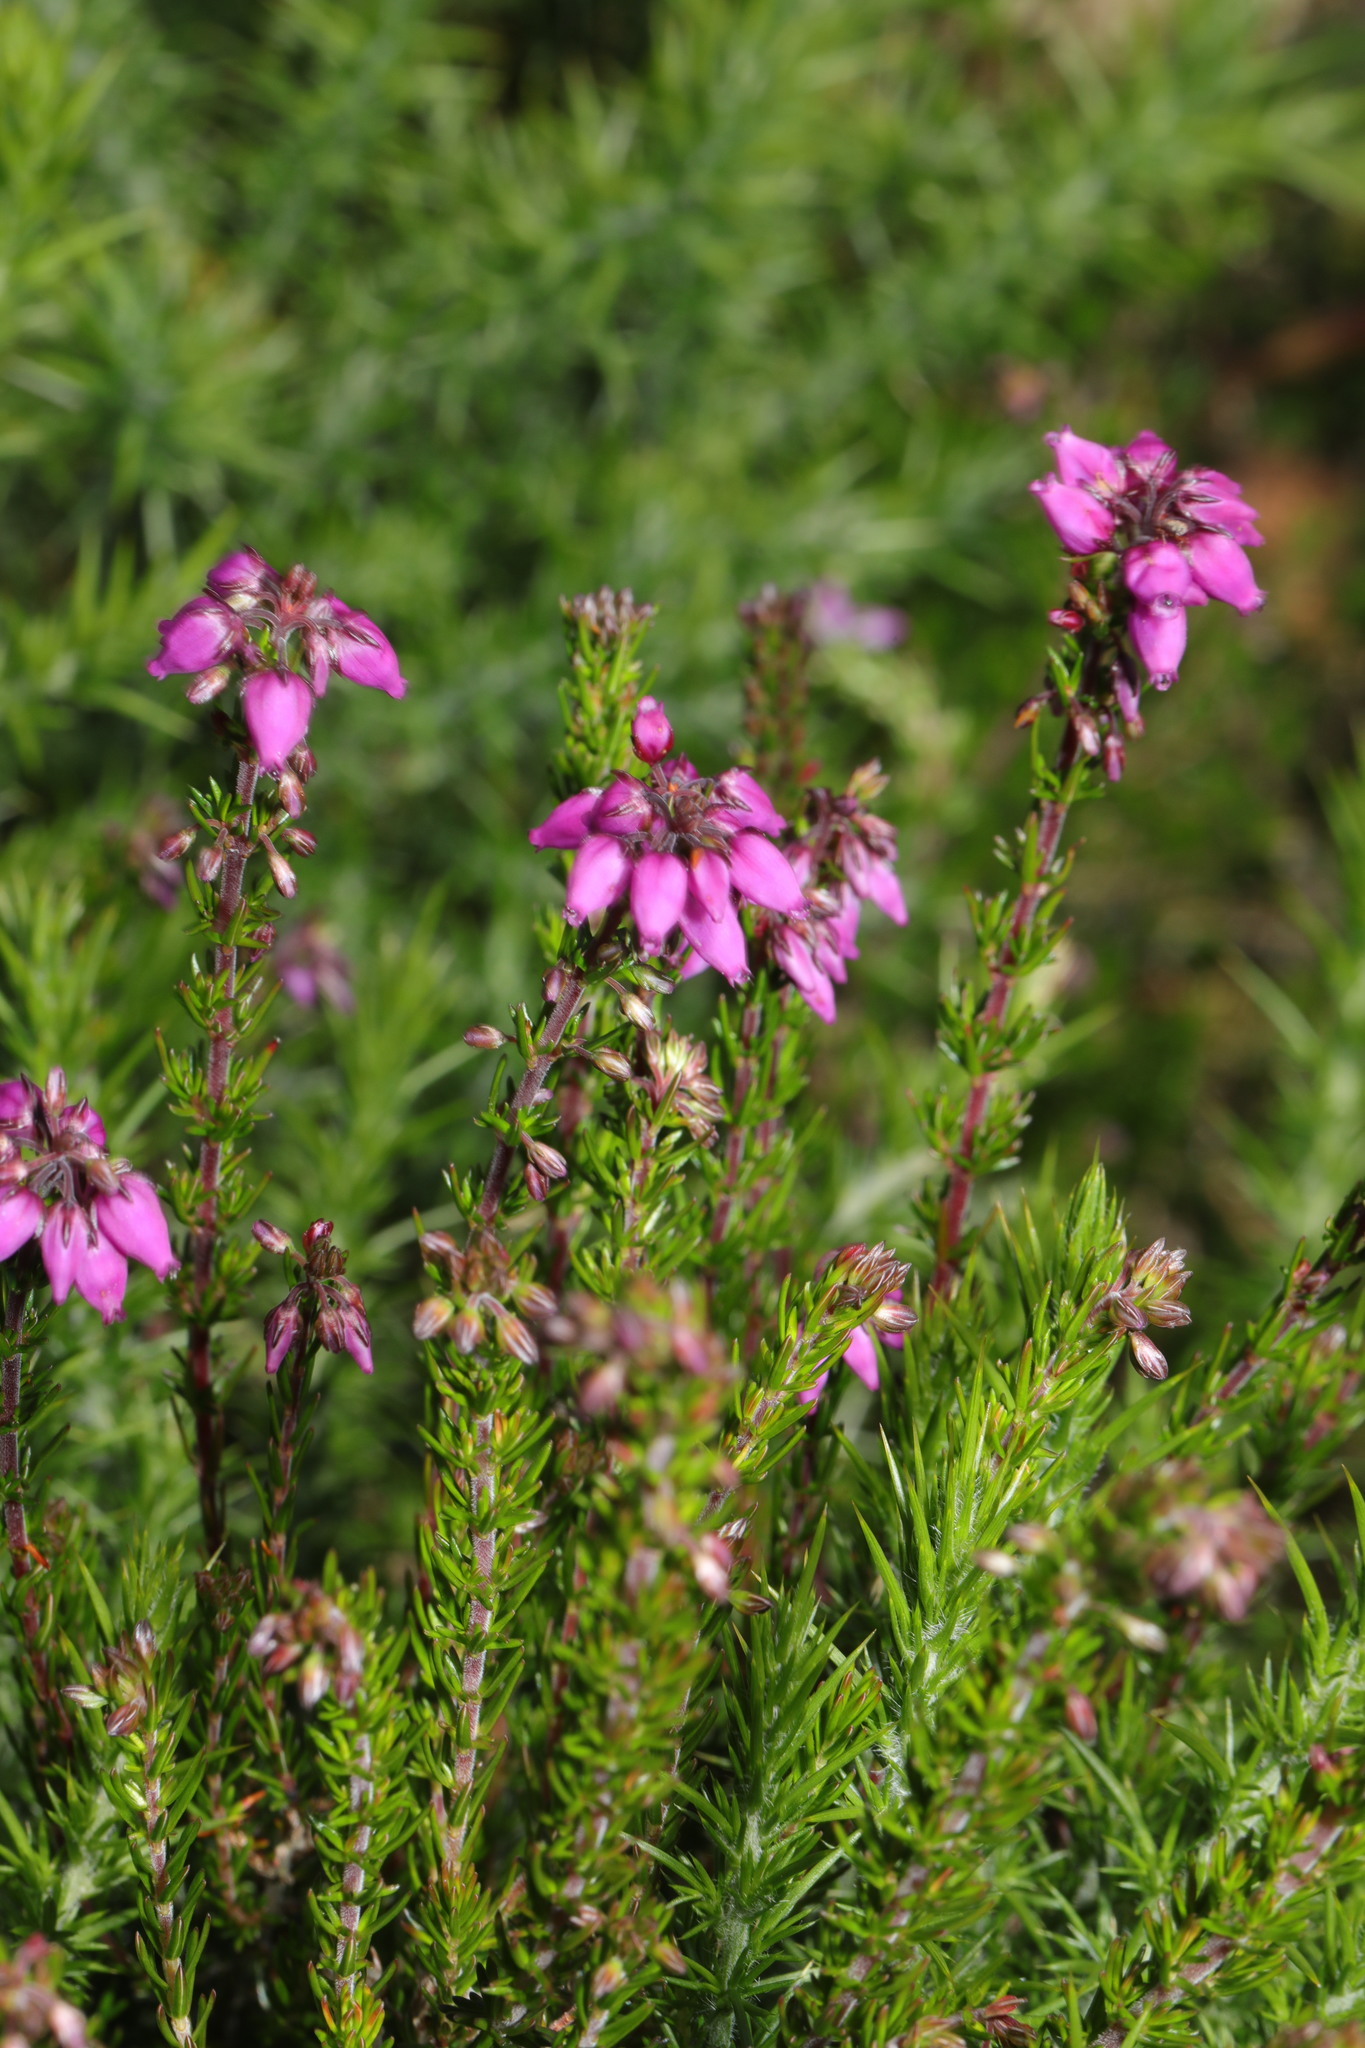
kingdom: Plantae
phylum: Tracheophyta
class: Magnoliopsida
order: Ericales
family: Ericaceae
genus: Erica
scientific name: Erica cinerea
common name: Bell heather
